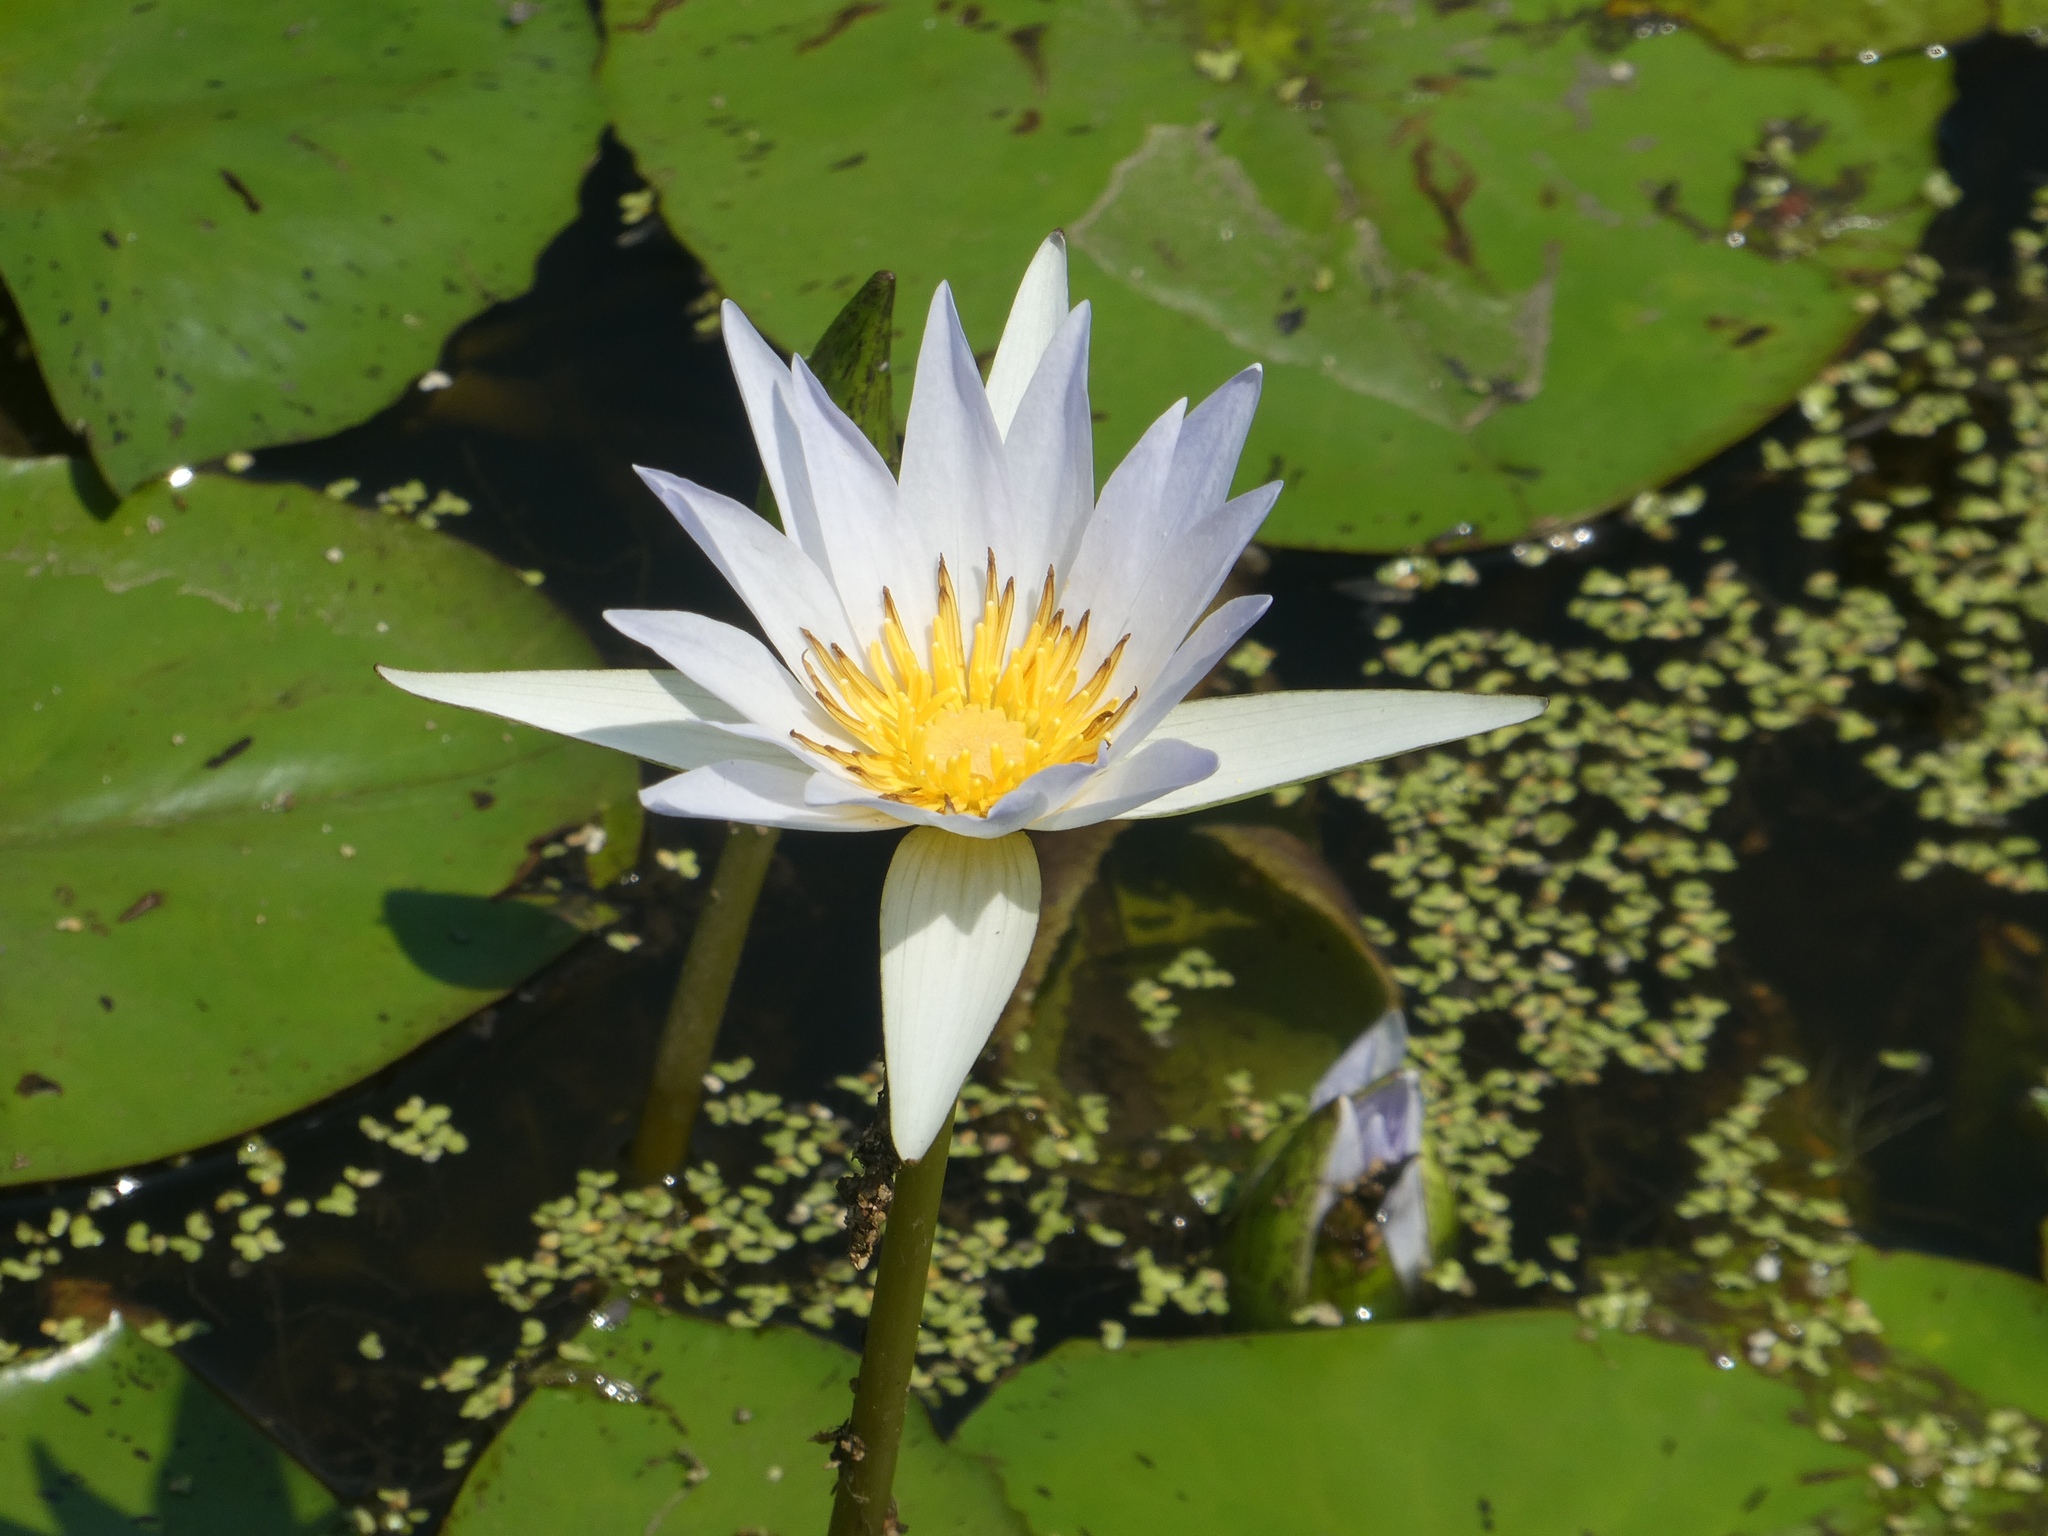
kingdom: Plantae
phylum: Tracheophyta
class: Magnoliopsida
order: Nymphaeales
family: Nymphaeaceae
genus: Nymphaea
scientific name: Nymphaea elegans
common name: Blue water-lily
